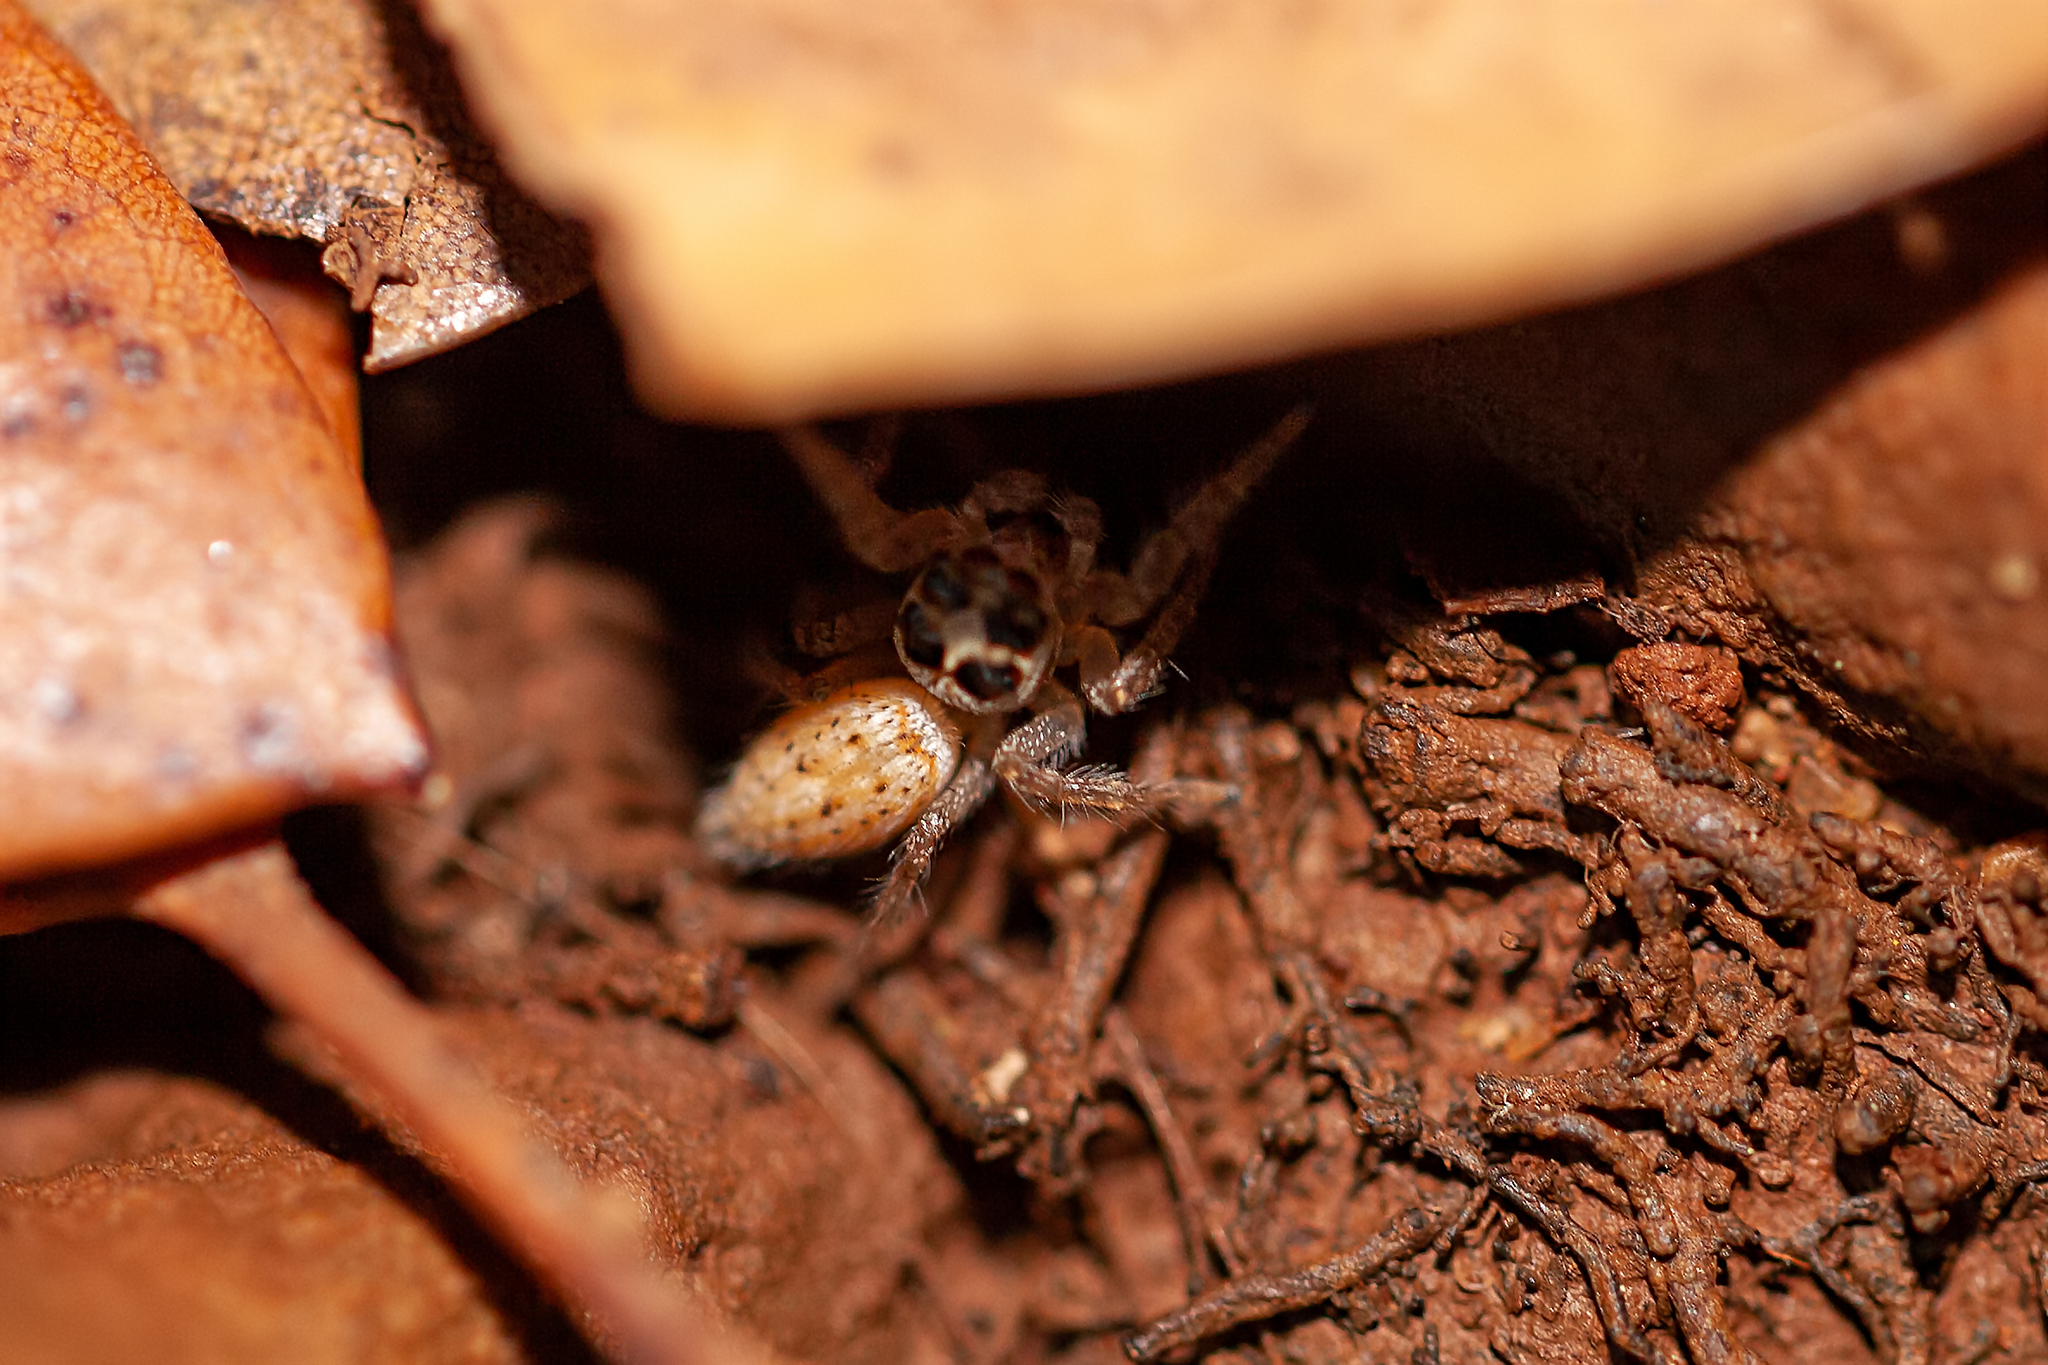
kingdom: Animalia
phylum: Arthropoda
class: Arachnida
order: Araneae
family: Salticidae
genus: Colonus
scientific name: Colonus hesperus
